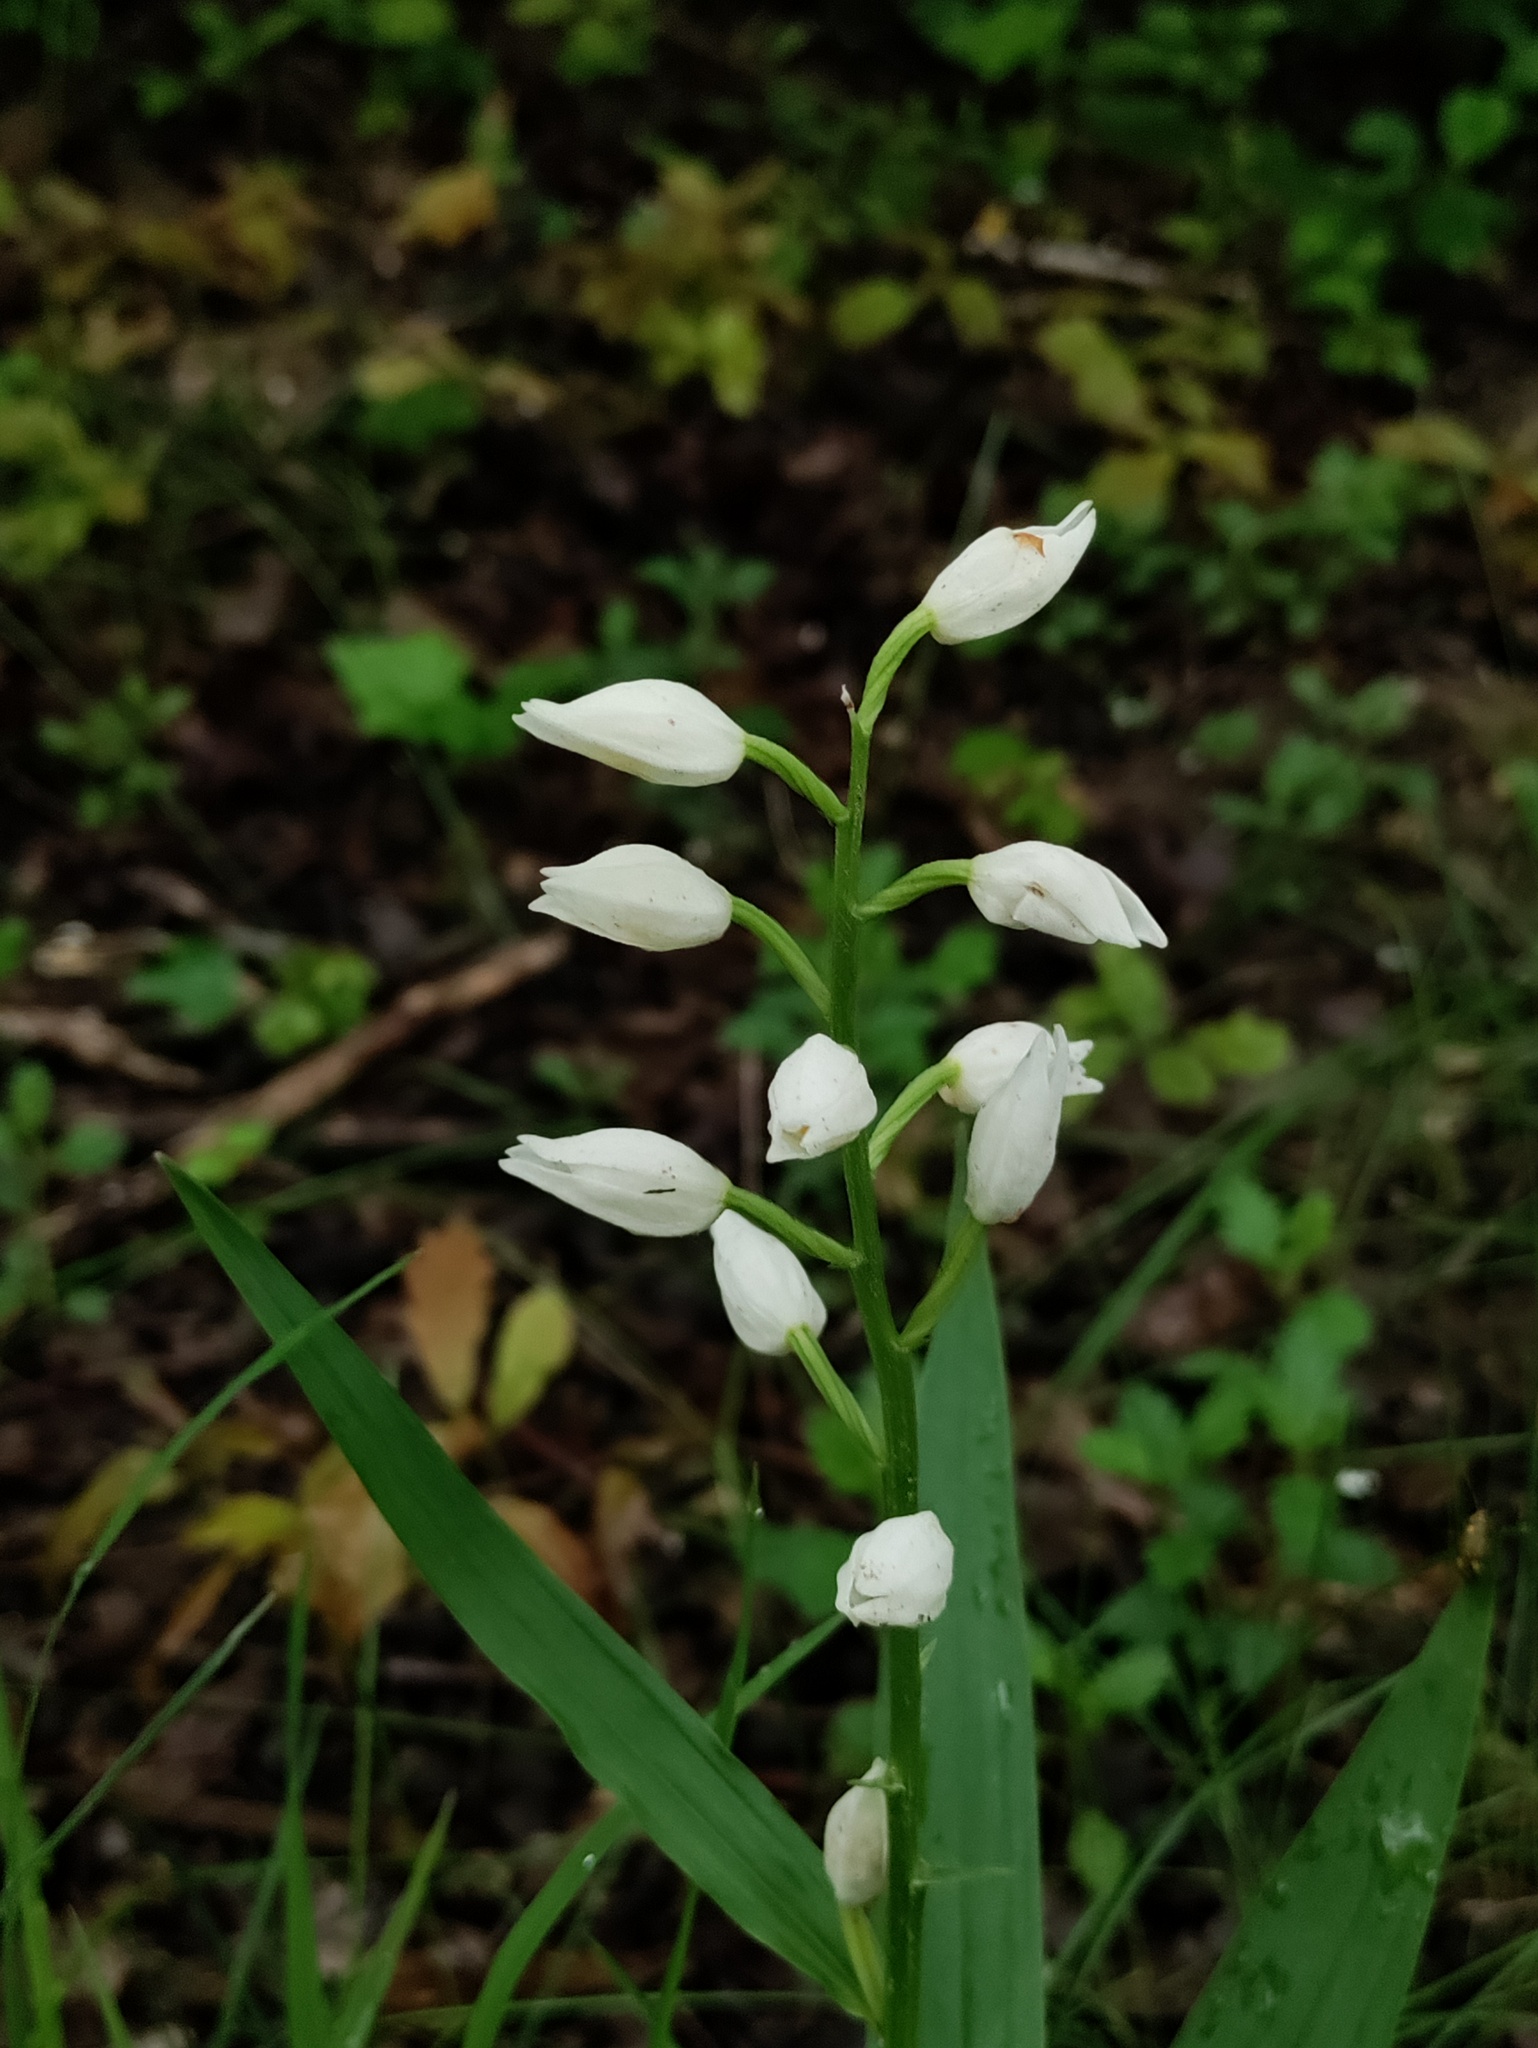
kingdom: Plantae
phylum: Tracheophyta
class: Liliopsida
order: Asparagales
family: Orchidaceae
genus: Cephalanthera
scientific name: Cephalanthera longifolia
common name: Narrow-leaved helleborine
